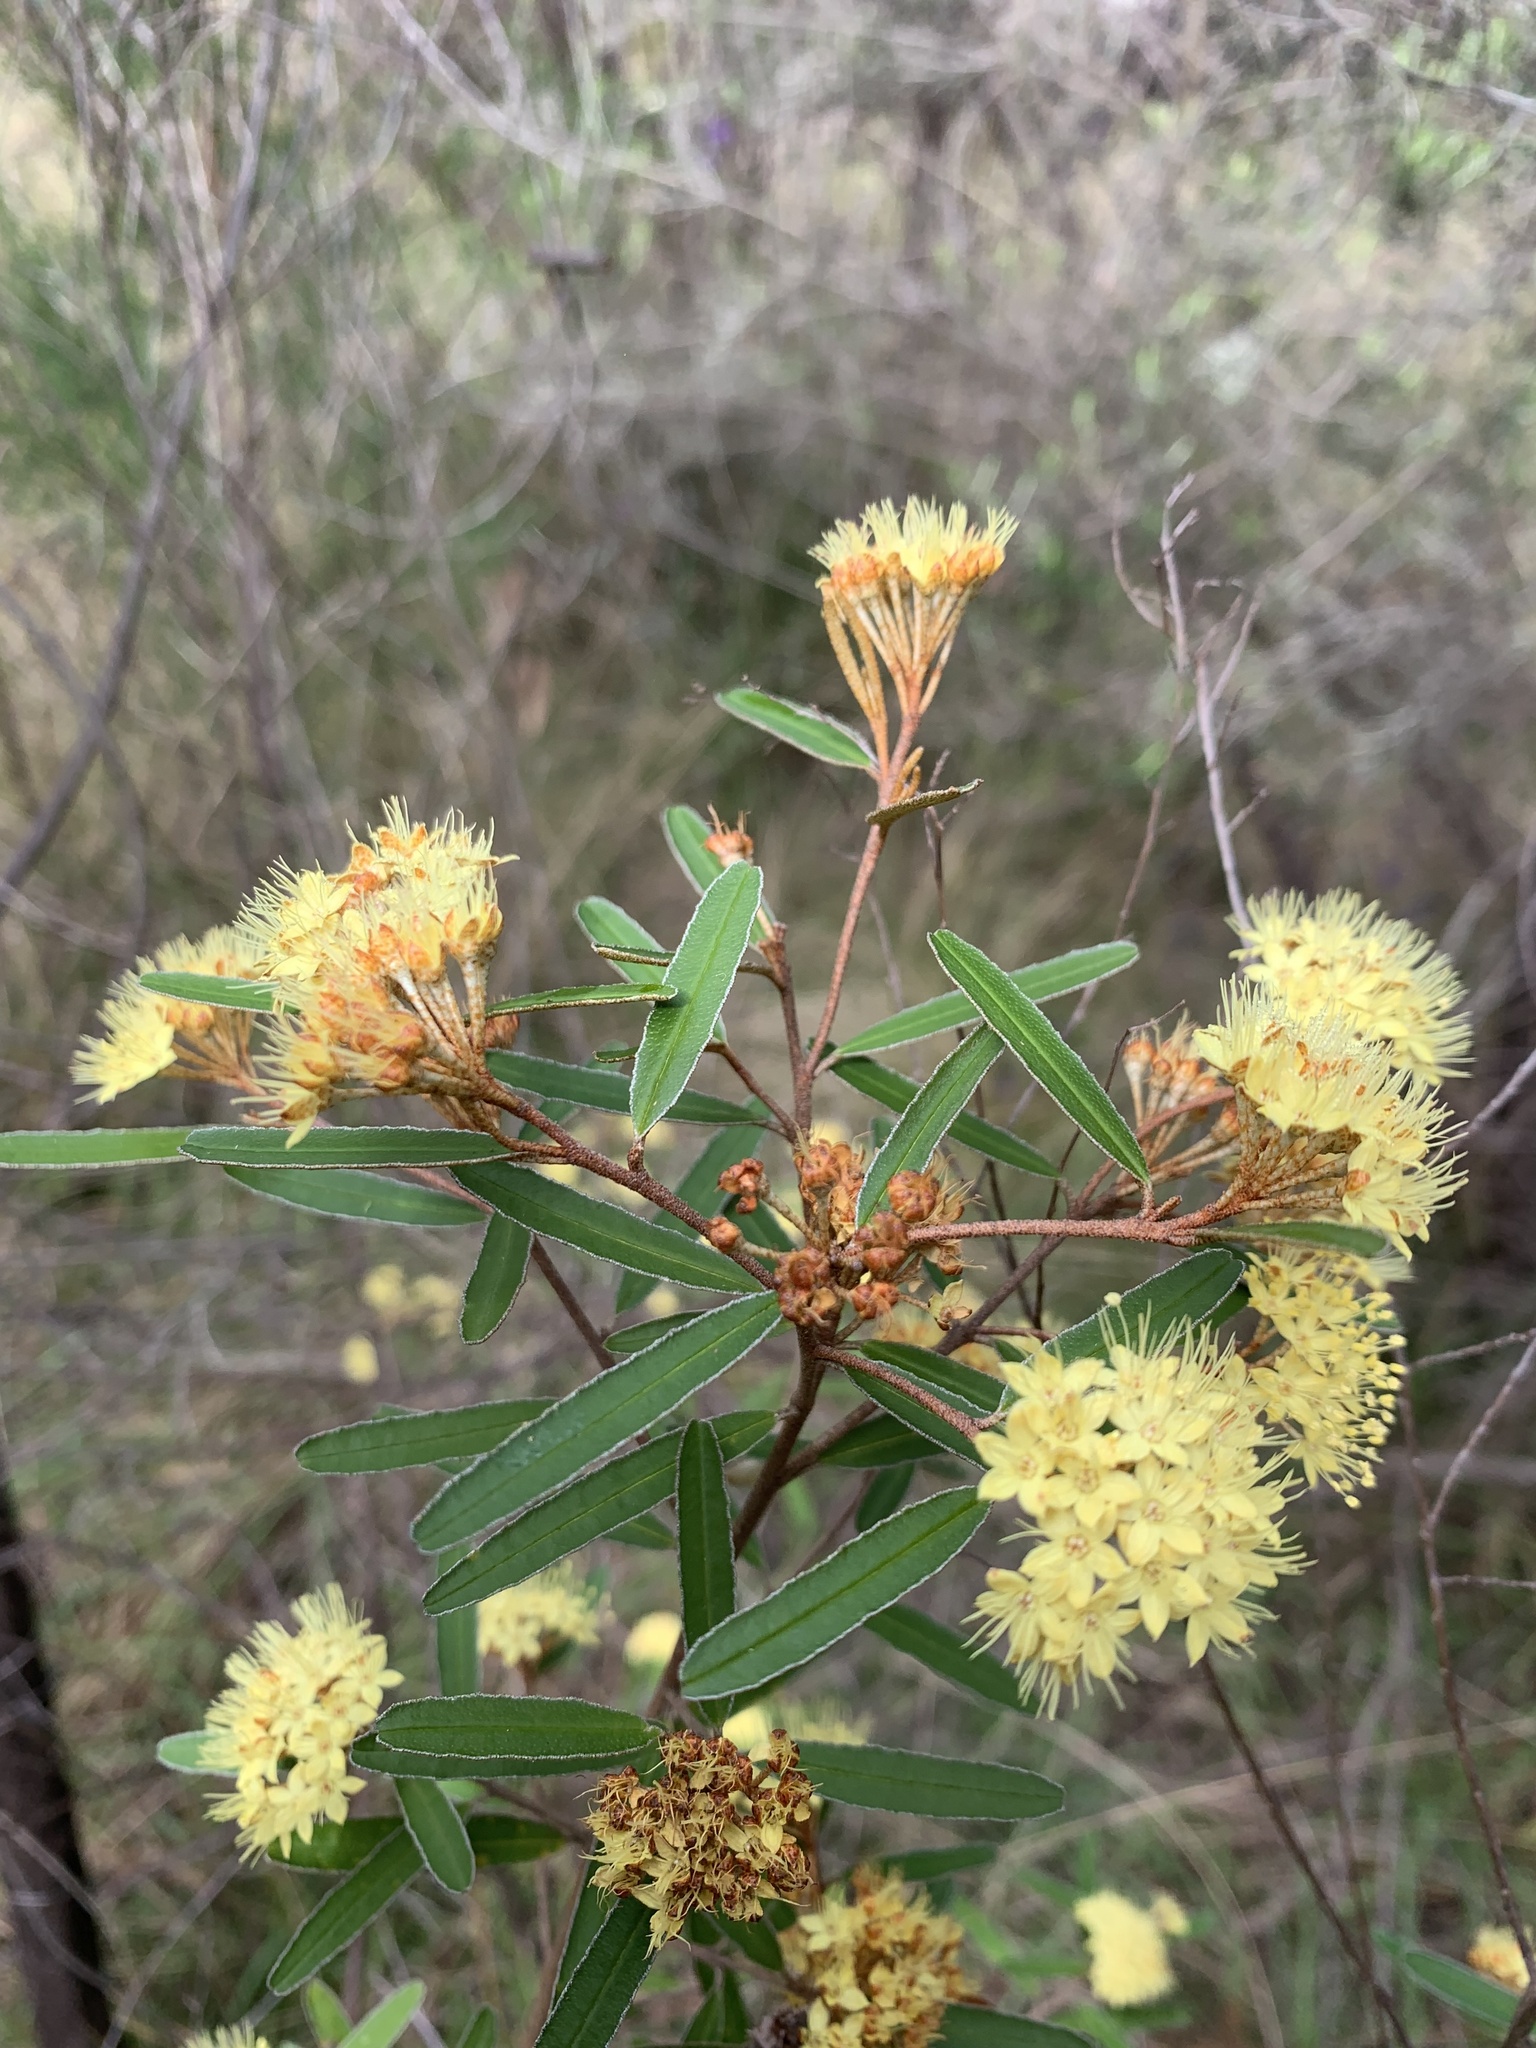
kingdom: Plantae
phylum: Tracheophyta
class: Magnoliopsida
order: Sapindales
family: Rutaceae
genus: Phebalium
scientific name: Phebalium squamulosum
